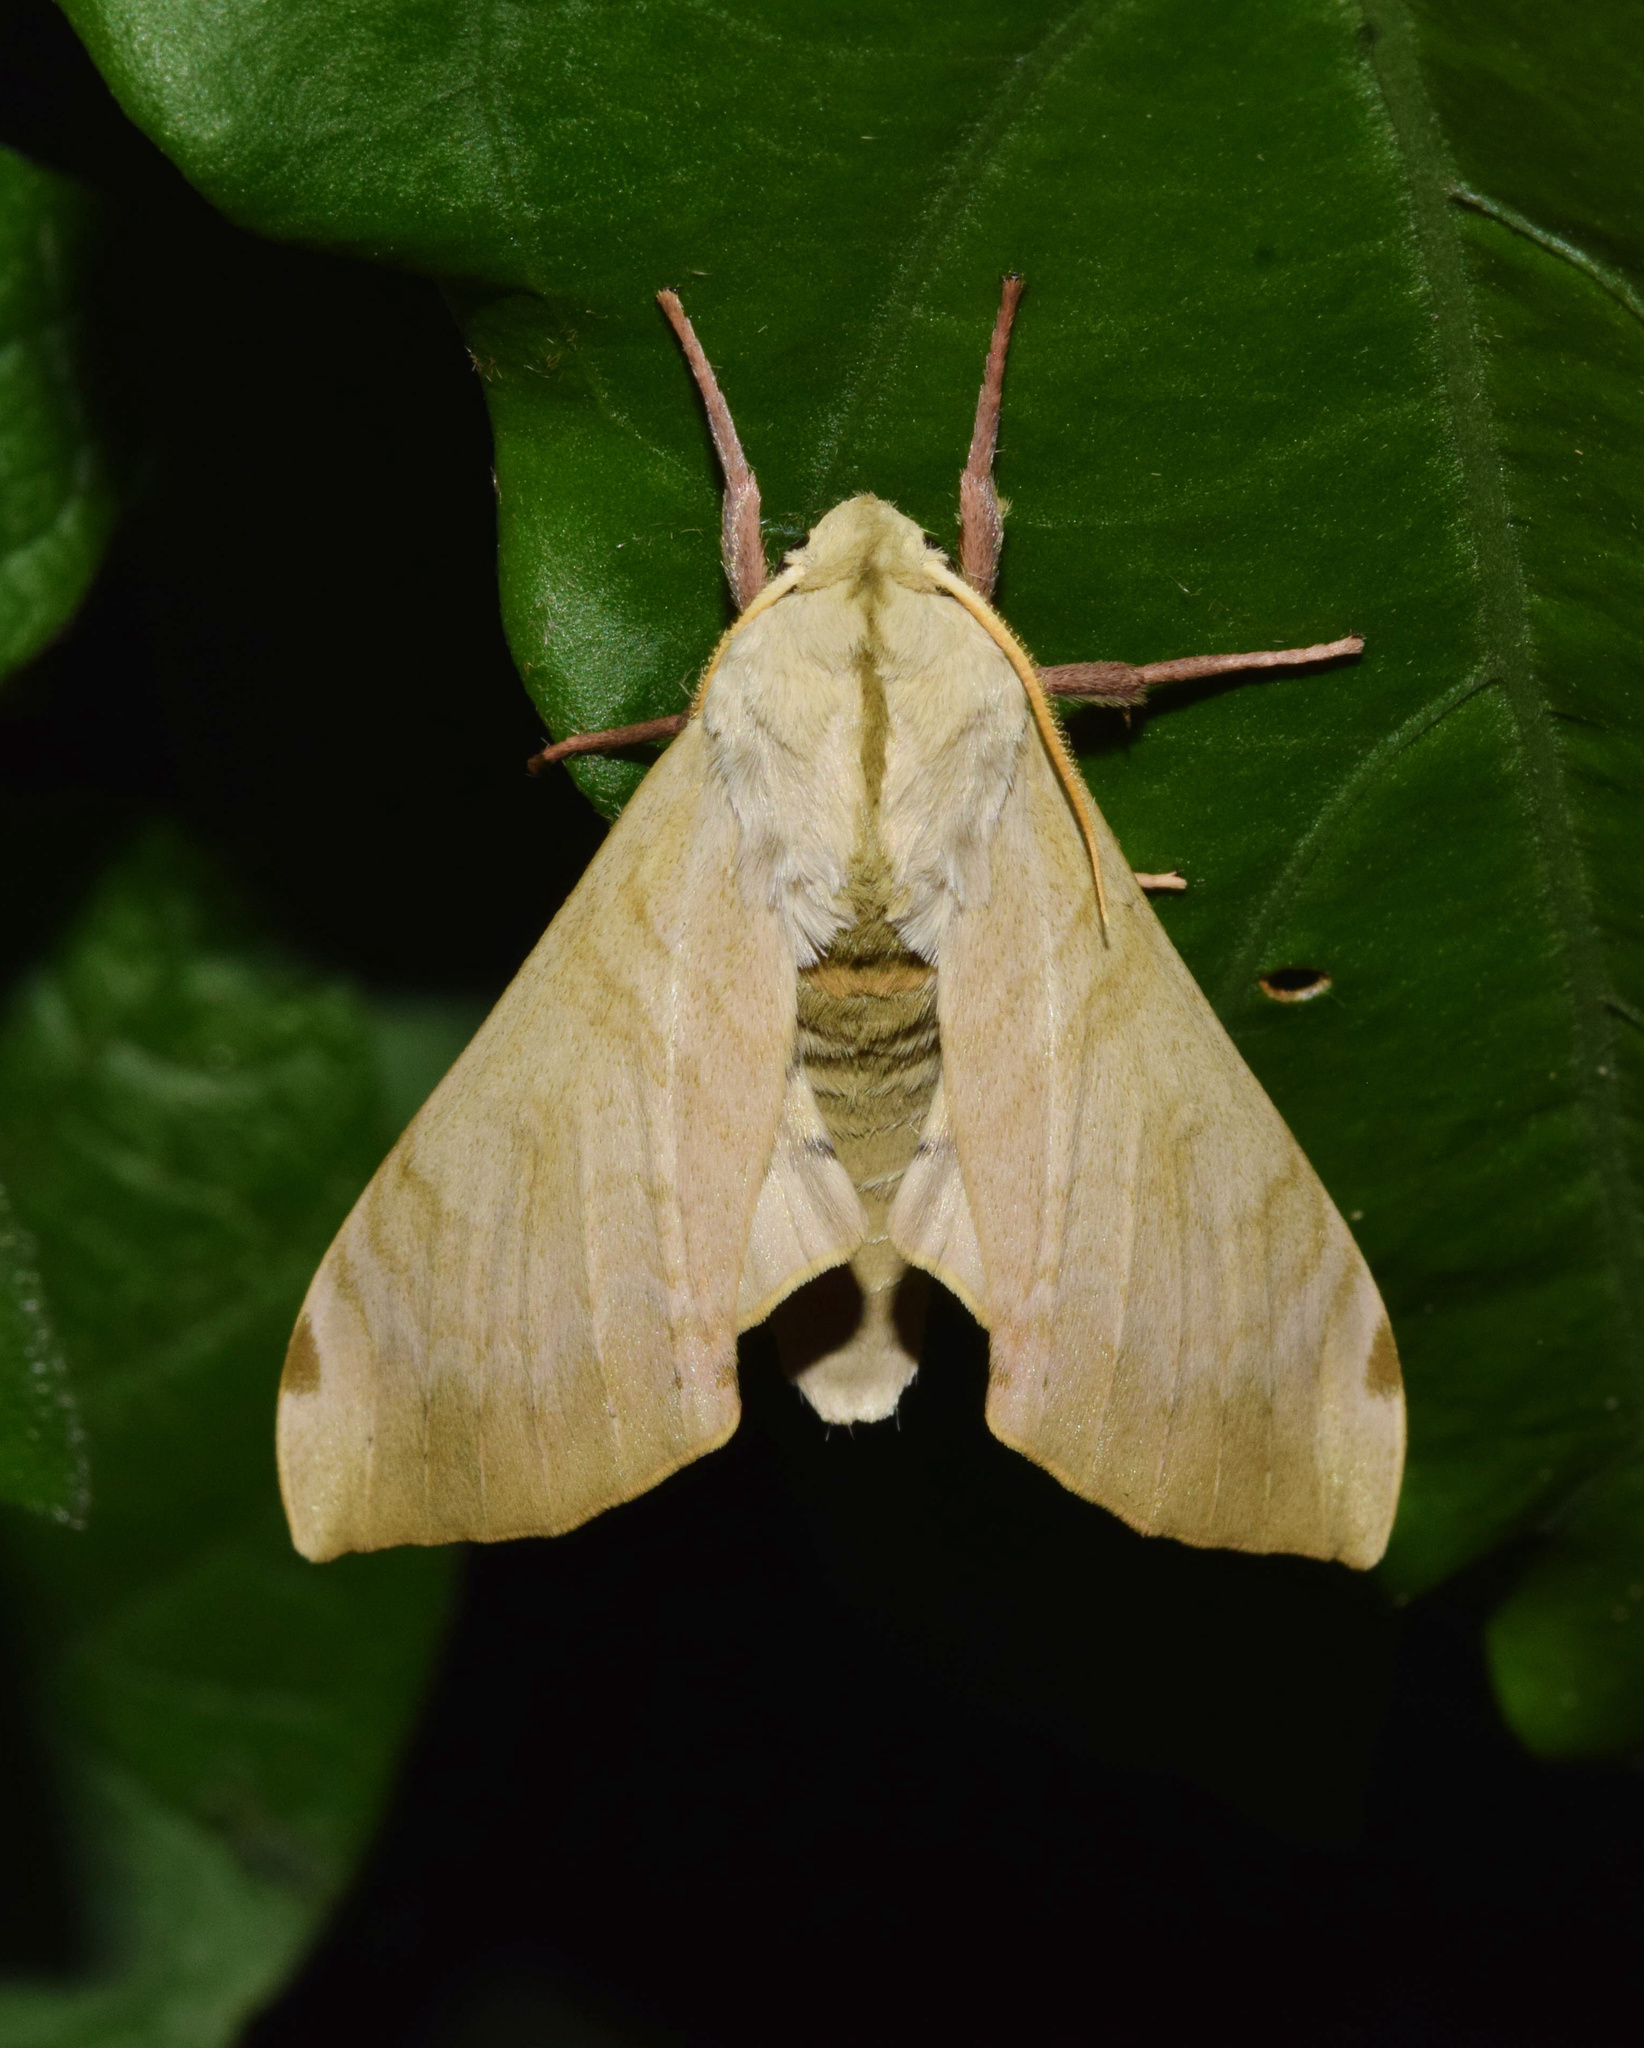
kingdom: Animalia
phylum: Arthropoda
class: Insecta
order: Lepidoptera
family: Sphingidae
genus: Pseudoclanis
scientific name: Pseudoclanis postica
